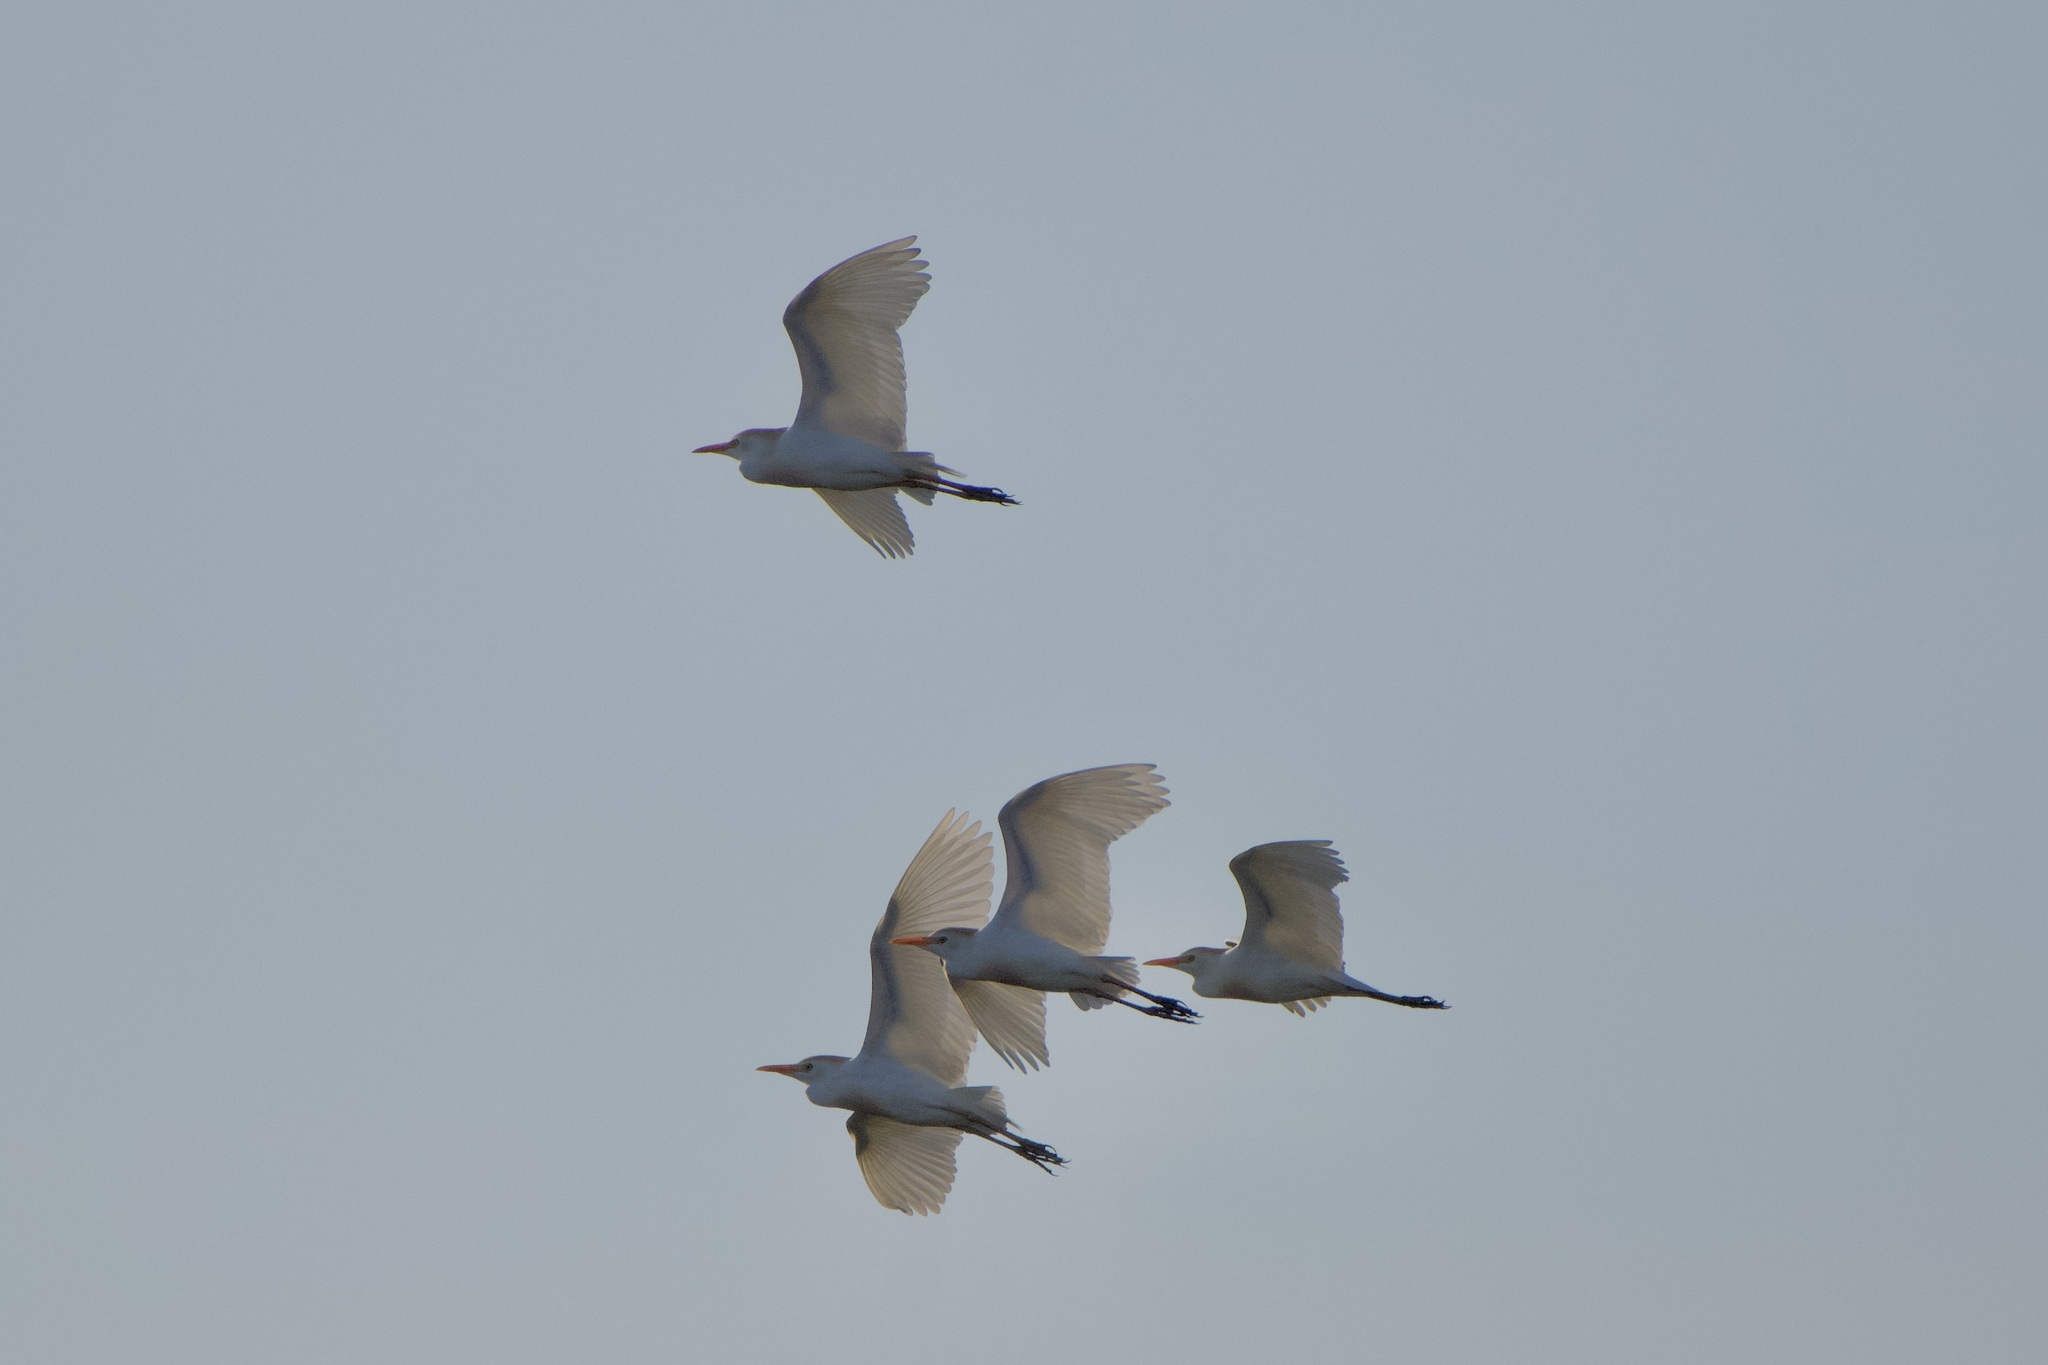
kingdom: Animalia
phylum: Chordata
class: Aves
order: Pelecaniformes
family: Ardeidae
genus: Bubulcus
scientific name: Bubulcus ibis
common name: Cattle egret
